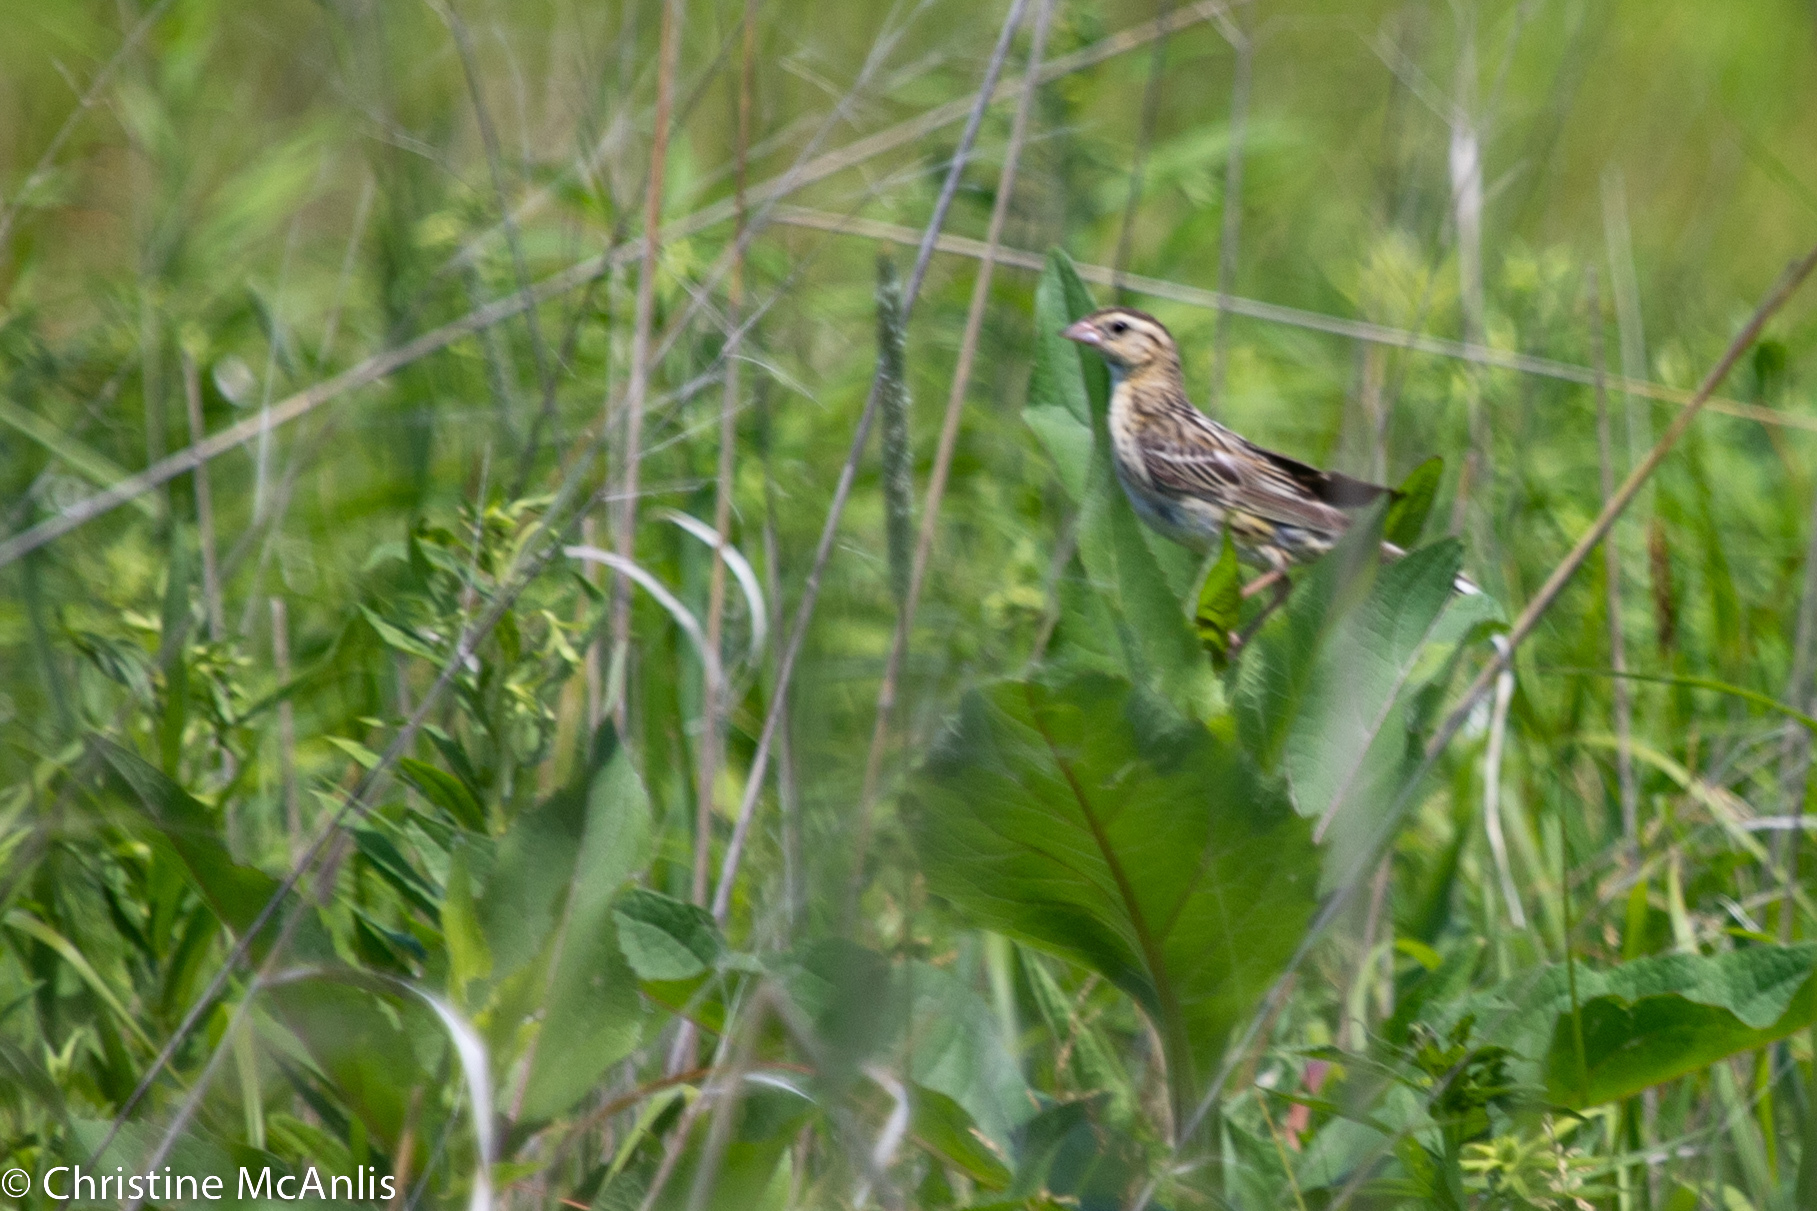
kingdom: Animalia
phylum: Chordata
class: Aves
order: Passeriformes
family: Icteridae
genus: Dolichonyx
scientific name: Dolichonyx oryzivorus
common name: Bobolink
